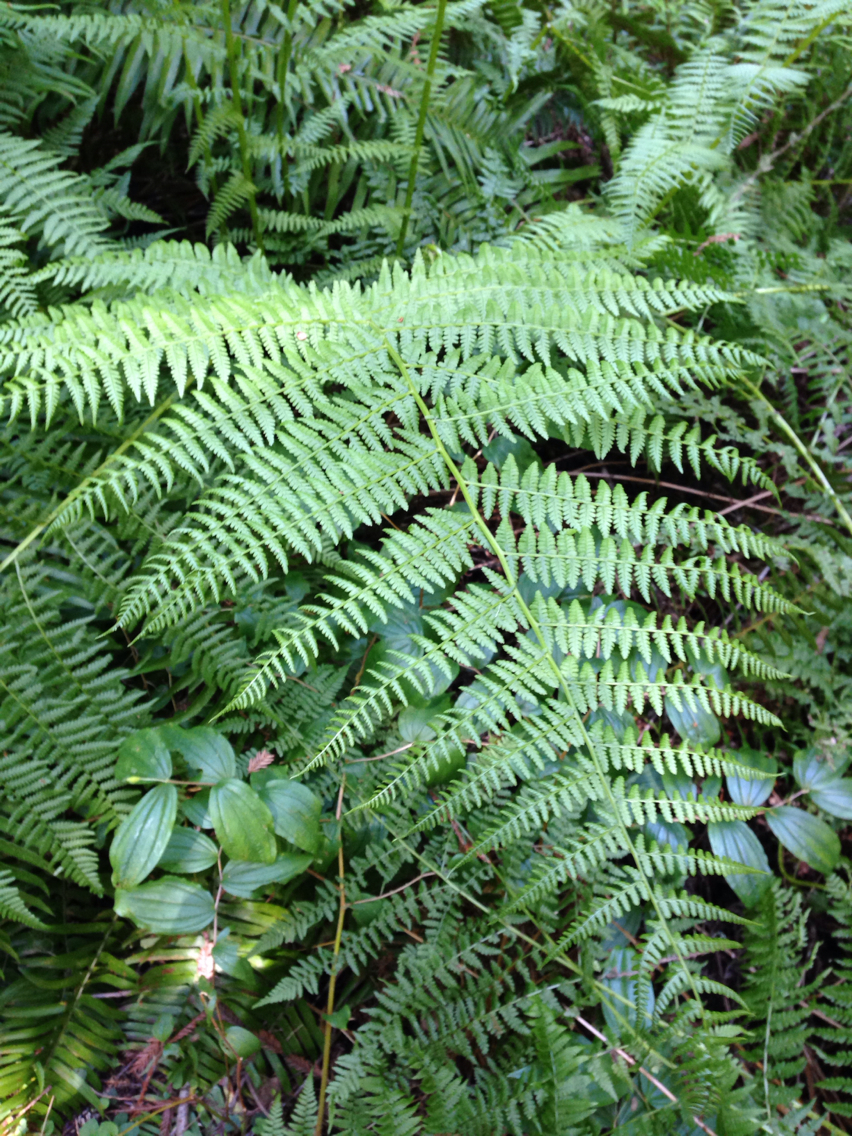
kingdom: Plantae
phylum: Tracheophyta
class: Polypodiopsida
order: Polypodiales
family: Athyriaceae
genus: Athyrium
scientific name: Athyrium filix-femina
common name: Lady fern
